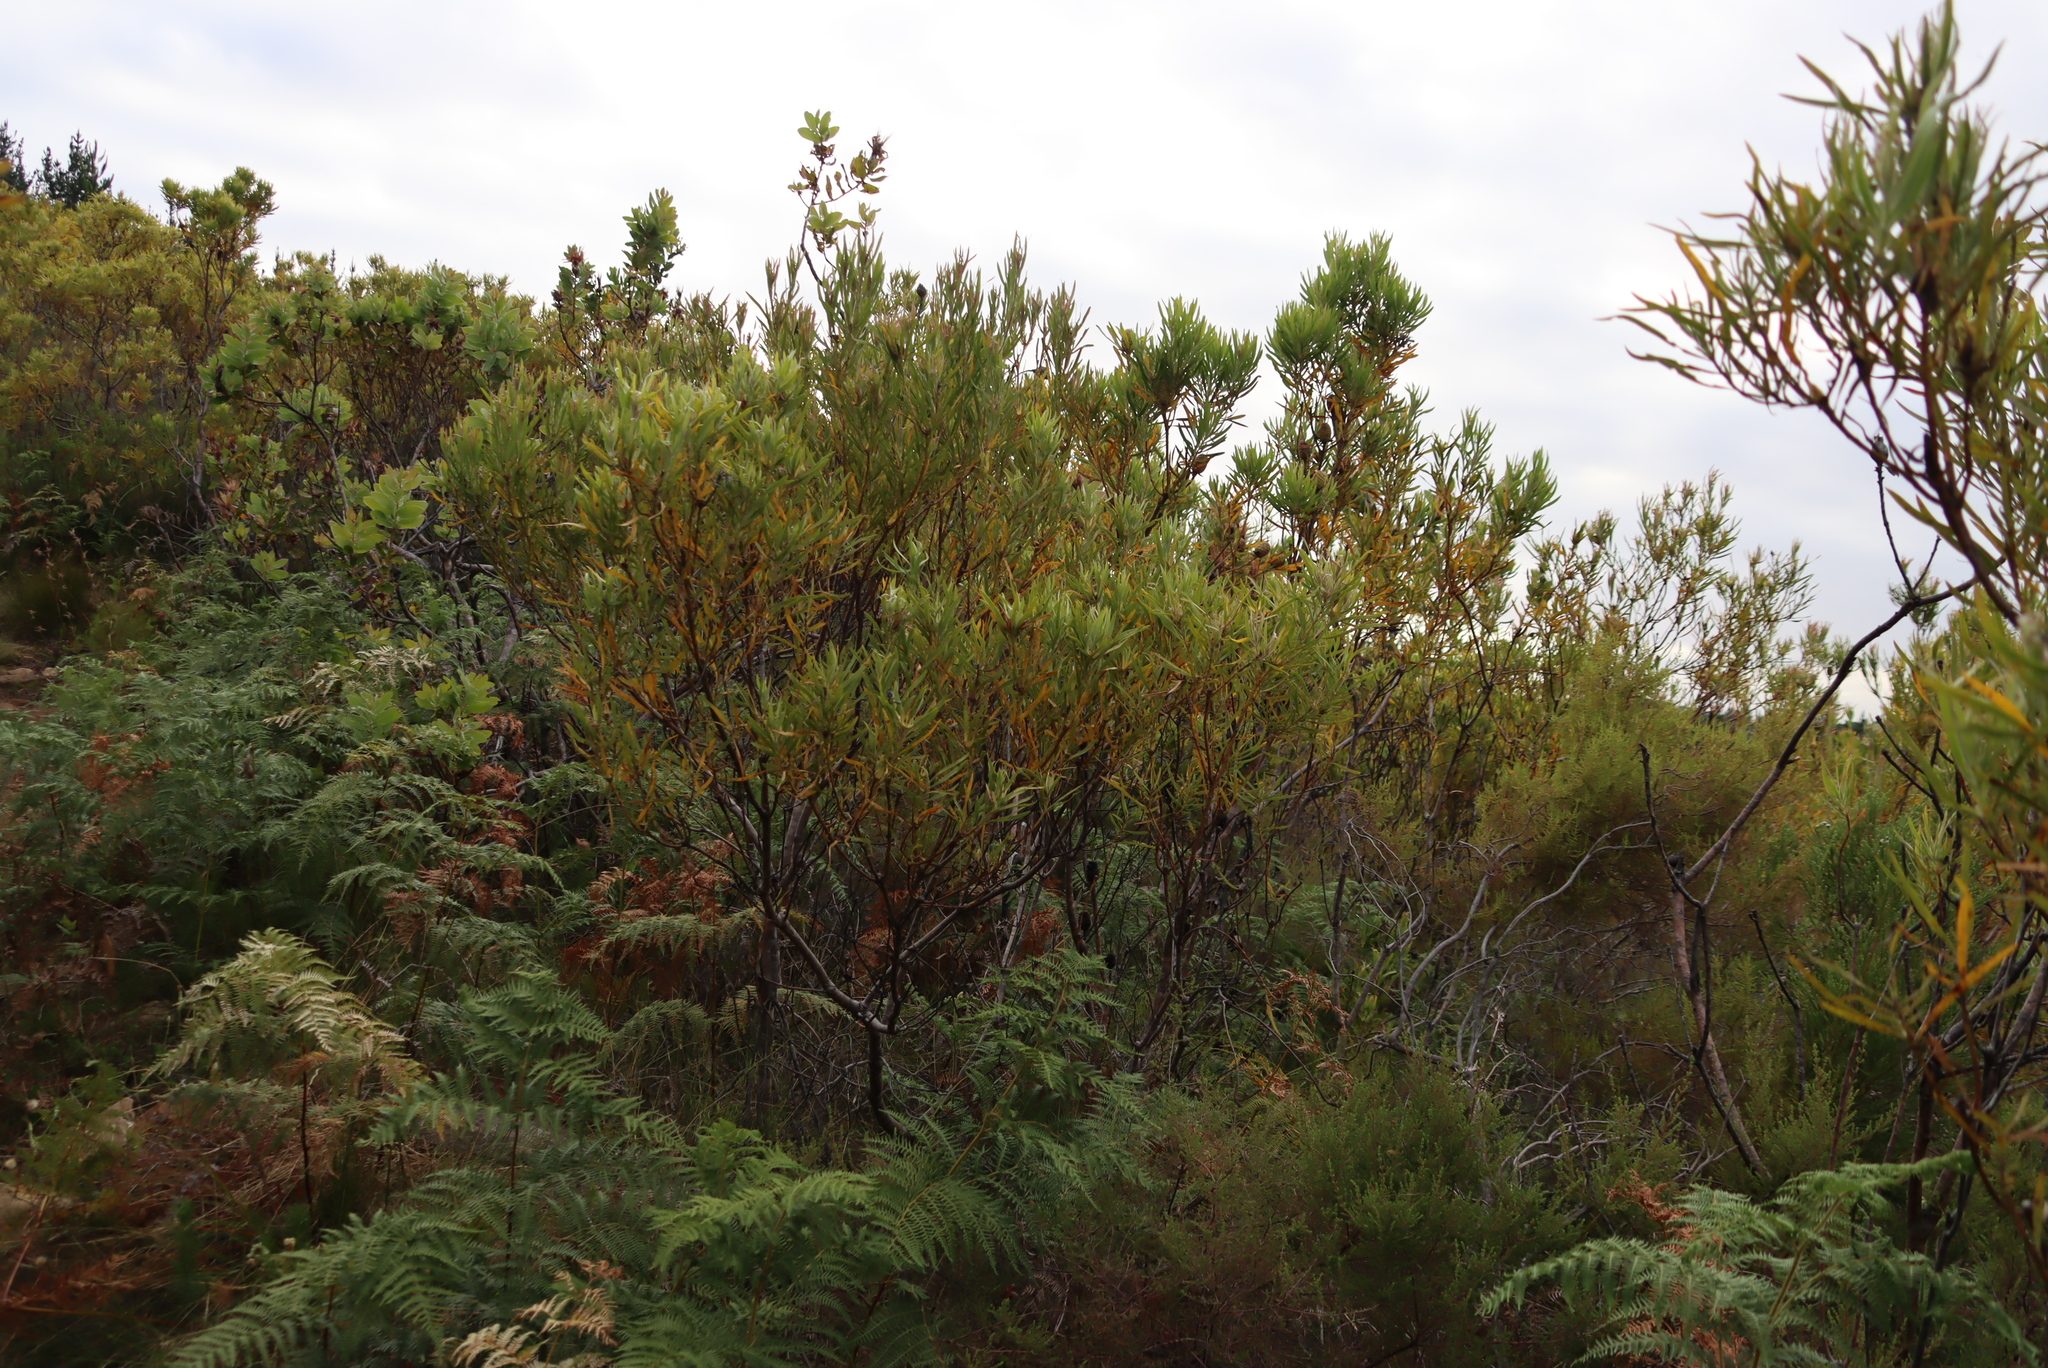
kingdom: Plantae
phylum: Tracheophyta
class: Magnoliopsida
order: Proteales
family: Proteaceae
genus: Leucadendron
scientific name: Leucadendron eucalyptifolium
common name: Gum-leaved conebush
